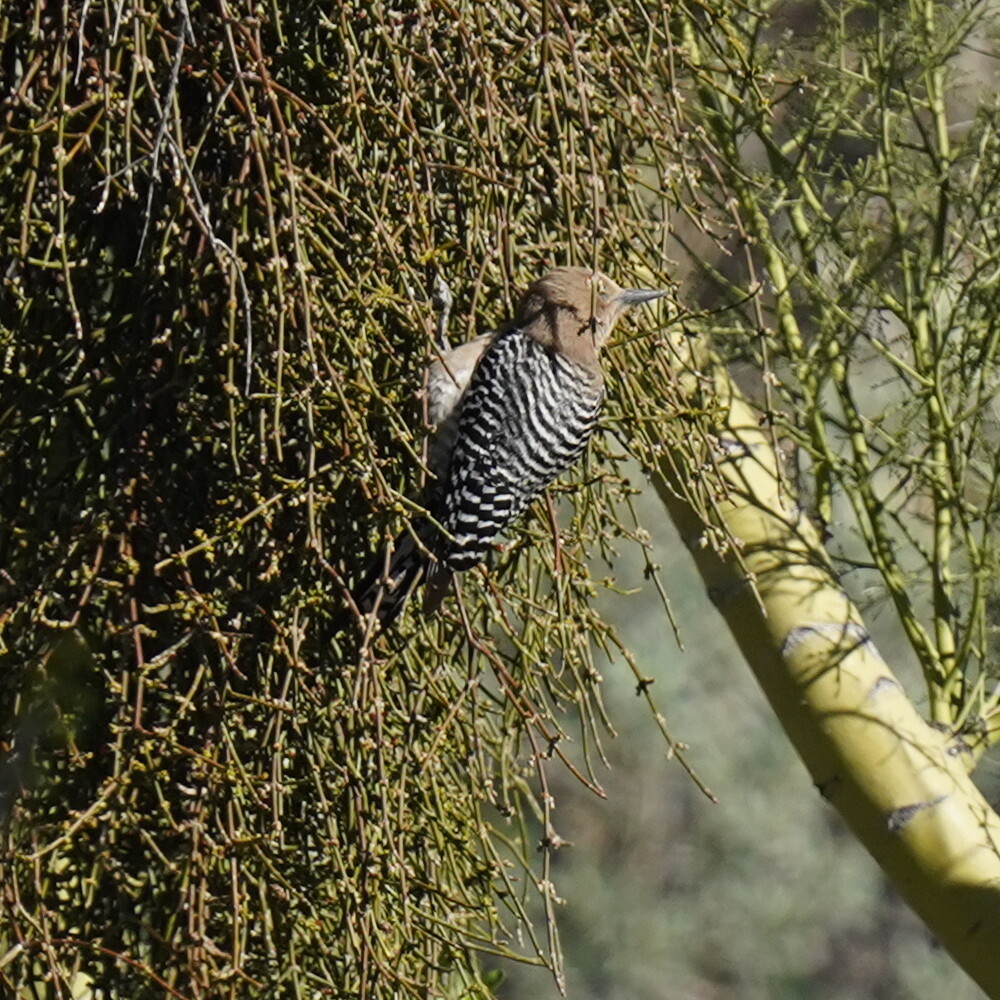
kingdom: Animalia
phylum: Chordata
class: Aves
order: Piciformes
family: Picidae
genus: Melanerpes
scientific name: Melanerpes uropygialis
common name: Gila woodpecker
